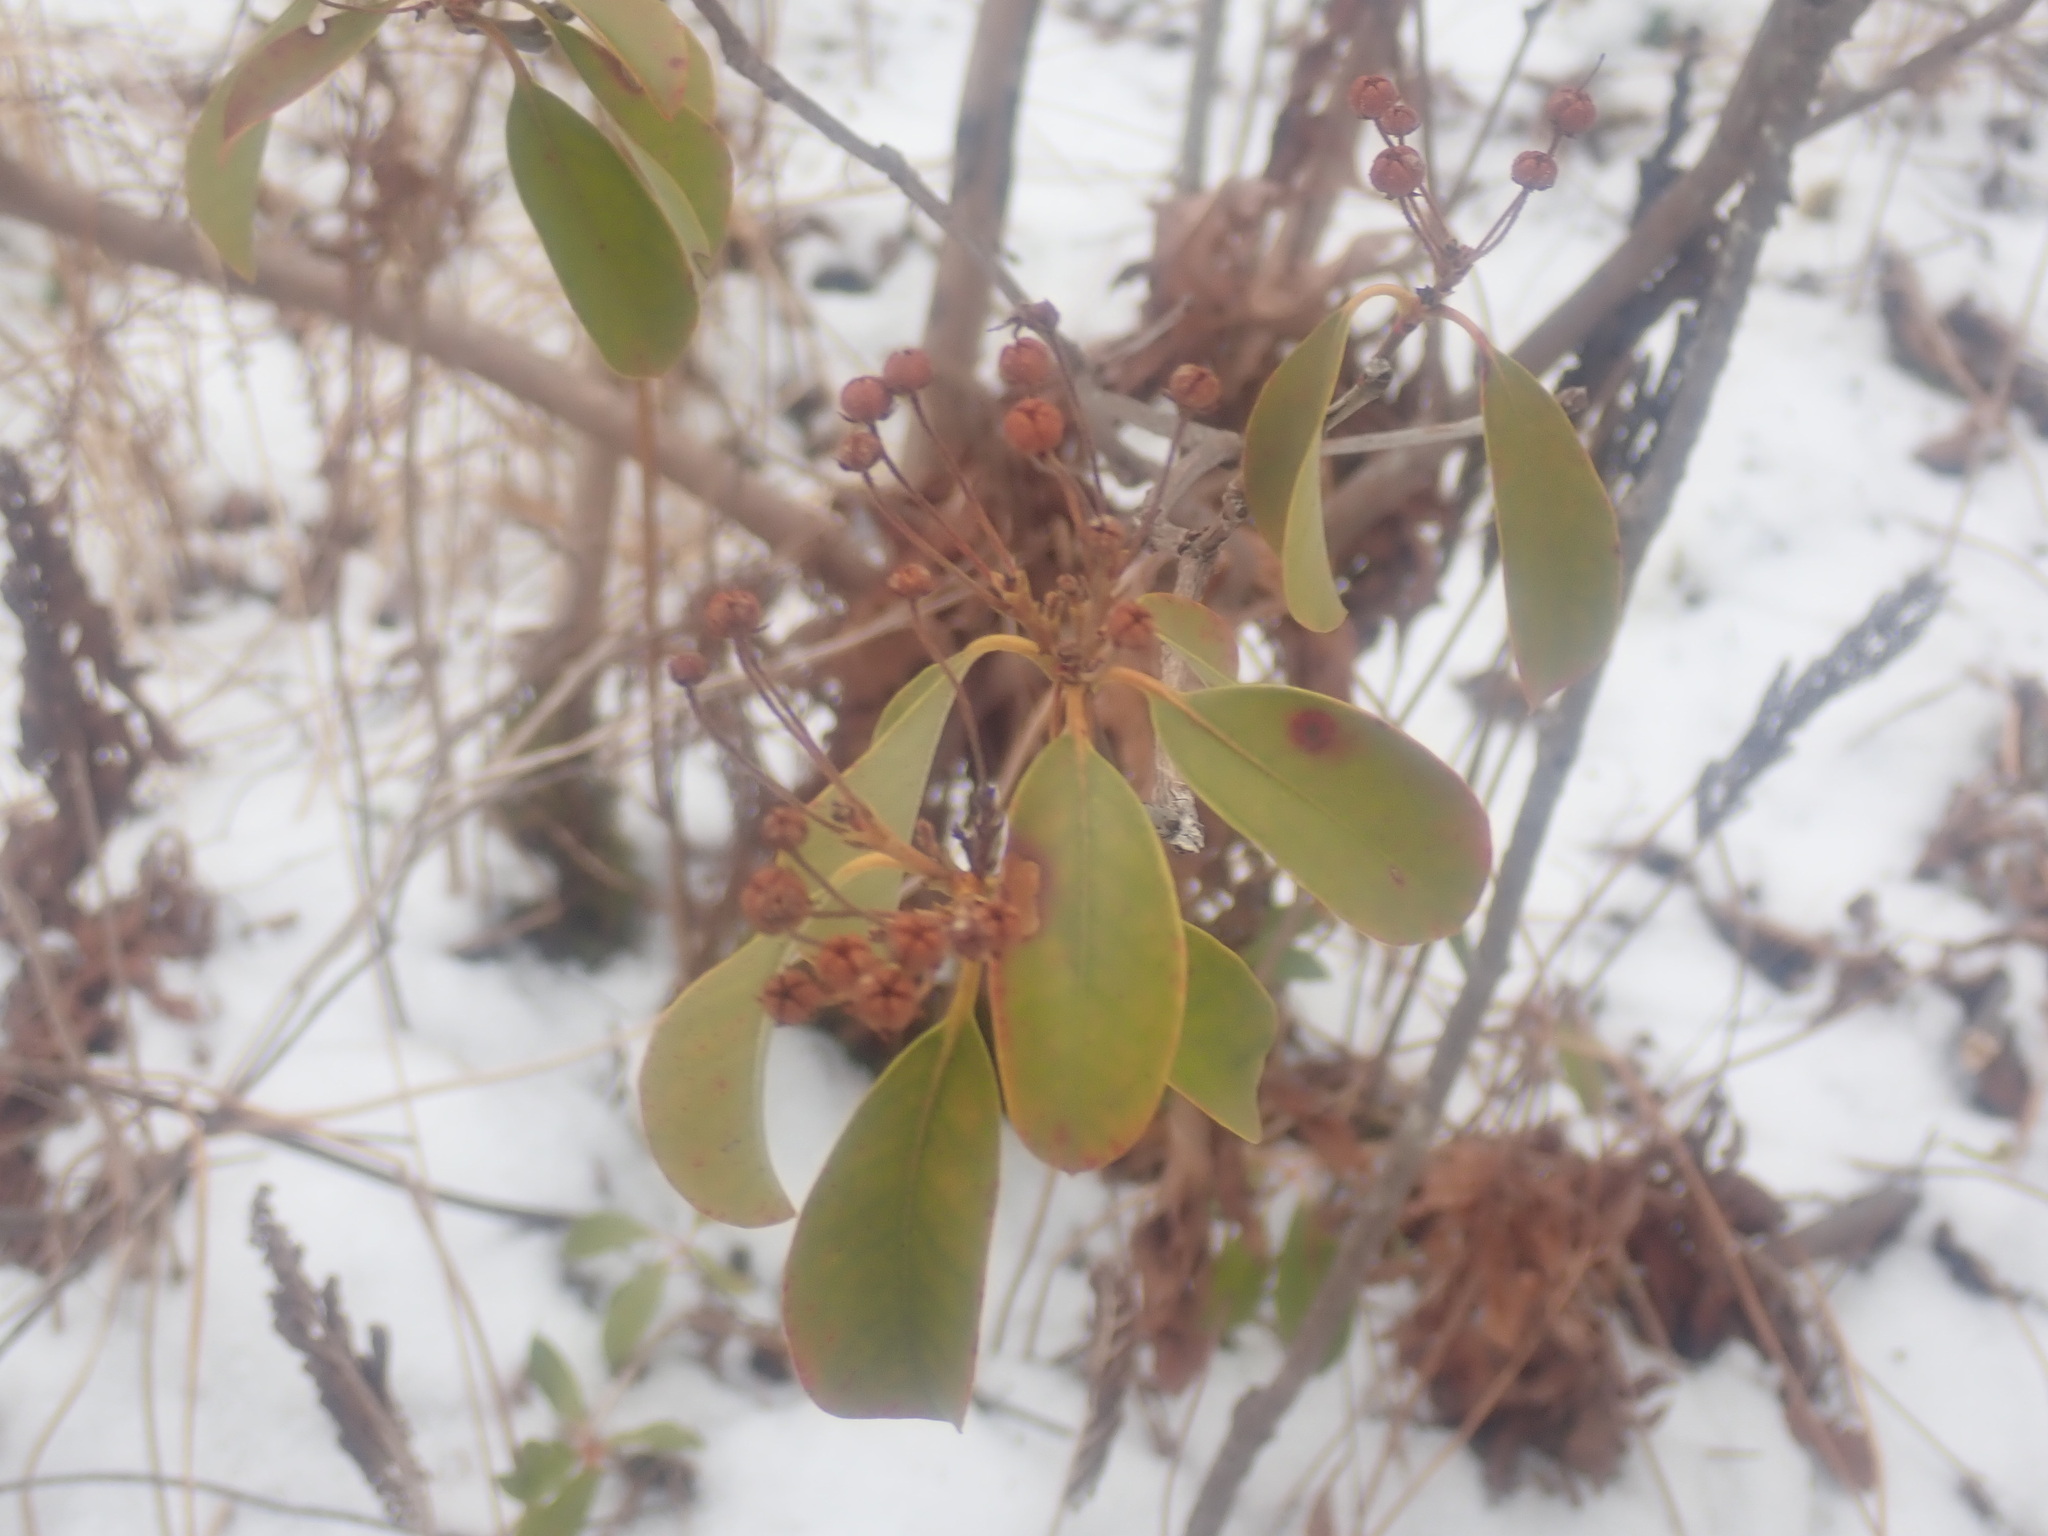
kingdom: Plantae
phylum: Tracheophyta
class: Magnoliopsida
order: Ericales
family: Ericaceae
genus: Kalmia
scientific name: Kalmia latifolia
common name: Mountain-laurel
